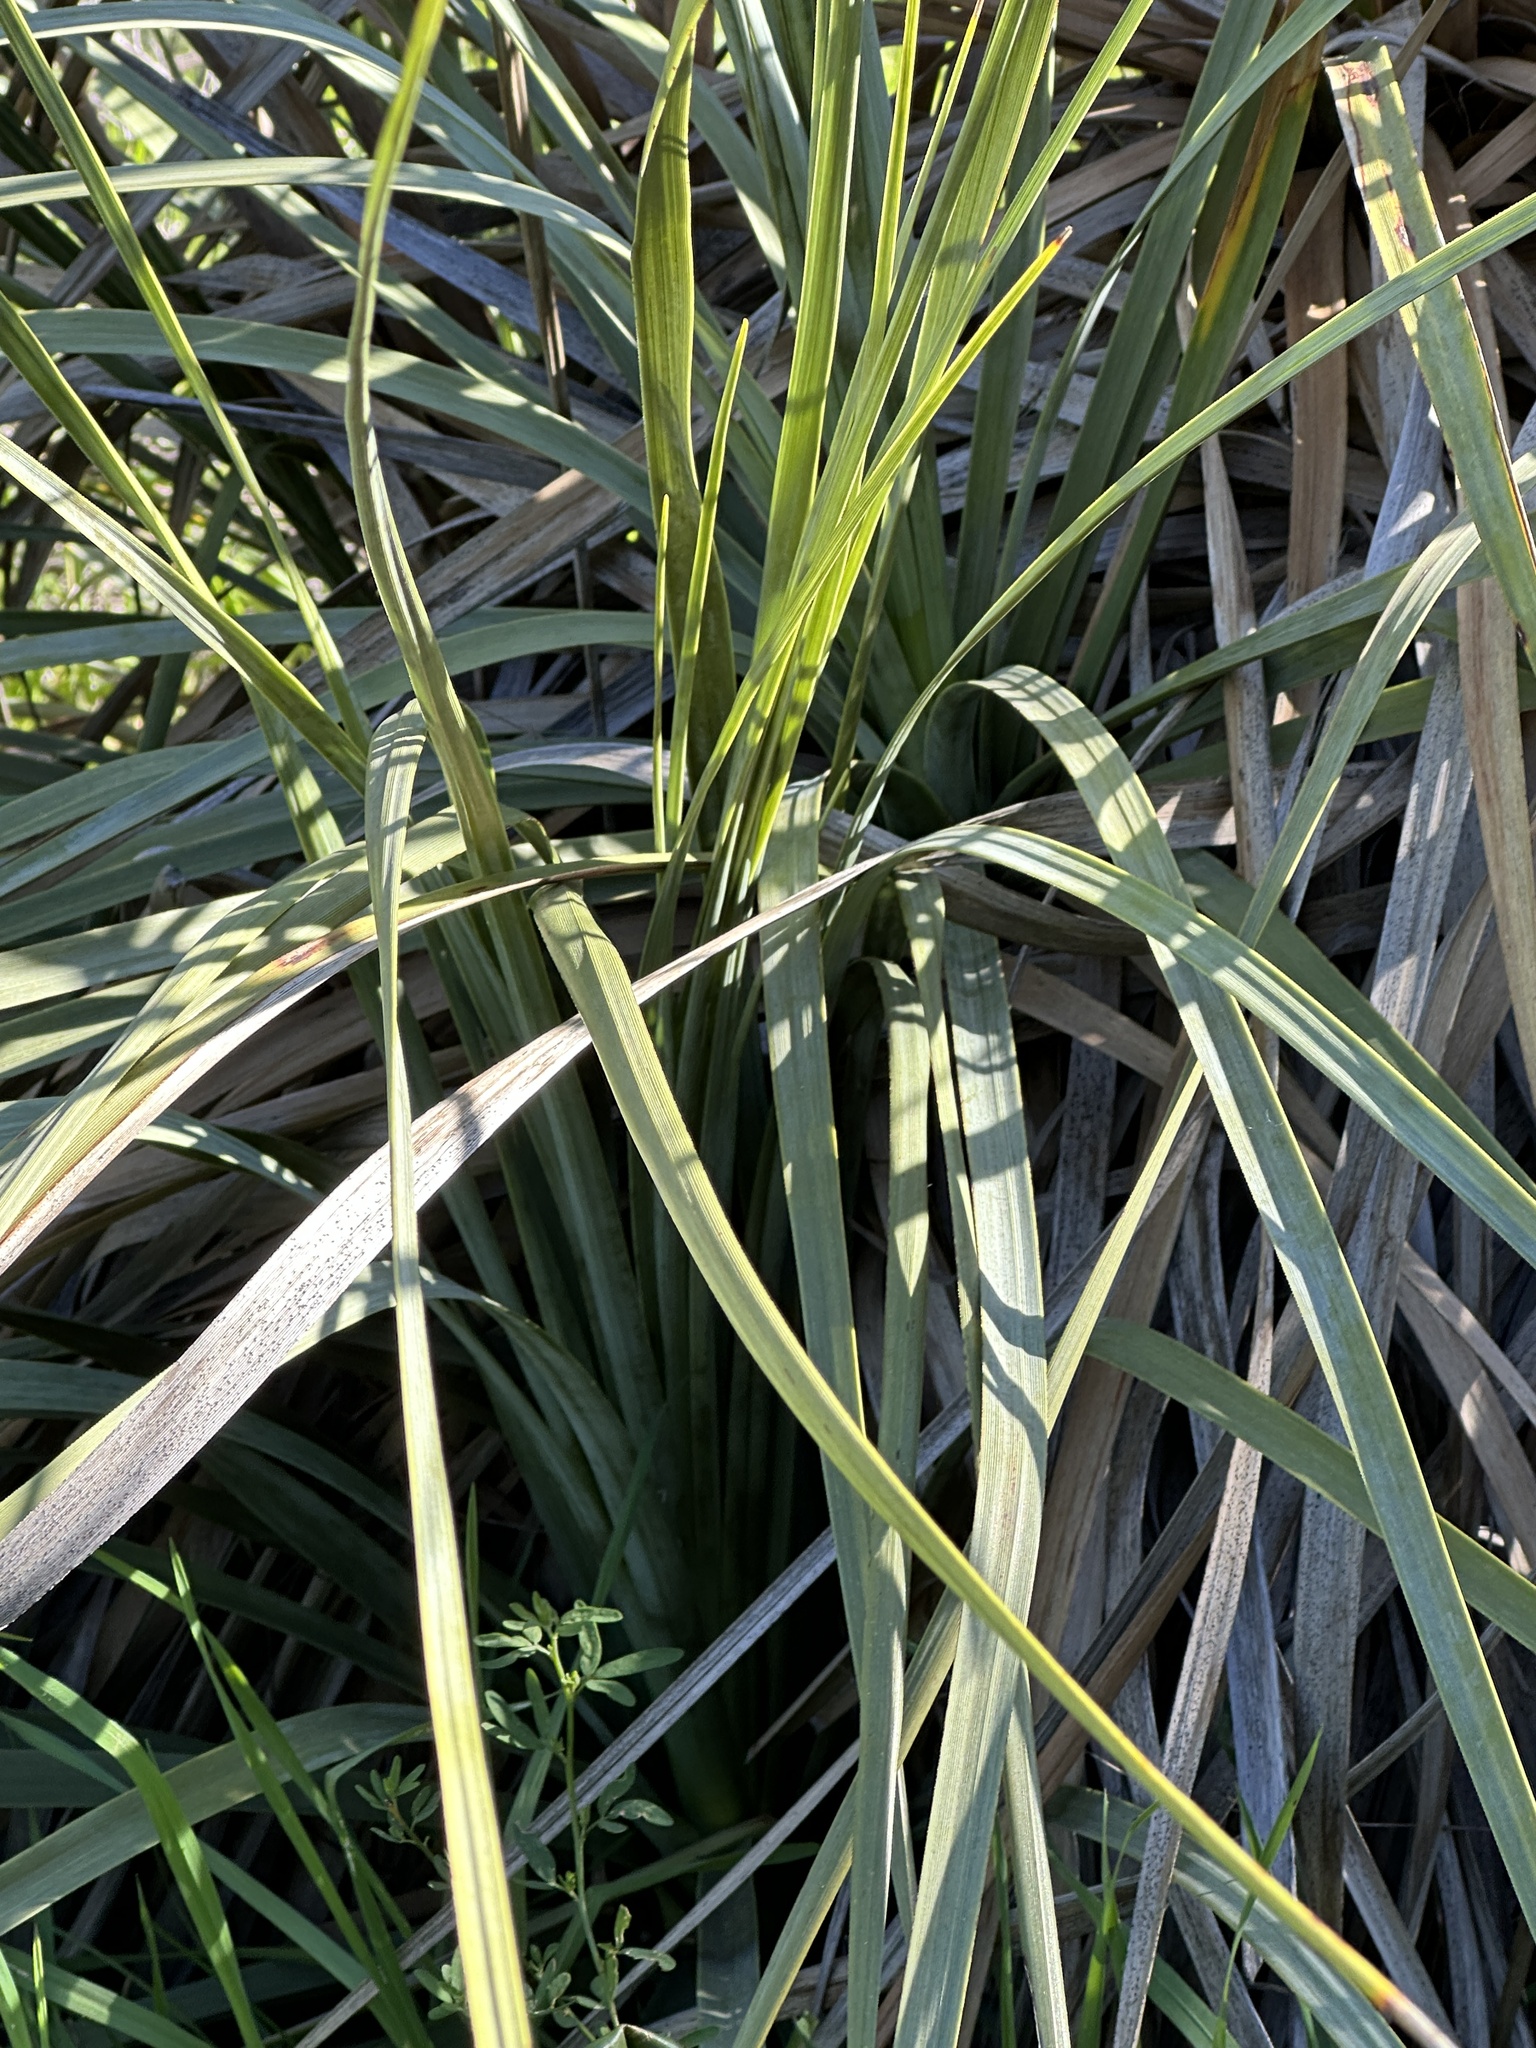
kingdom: Plantae
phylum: Tracheophyta
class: Liliopsida
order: Asparagales
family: Asparagaceae
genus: Nolina
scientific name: Nolina cismontana
